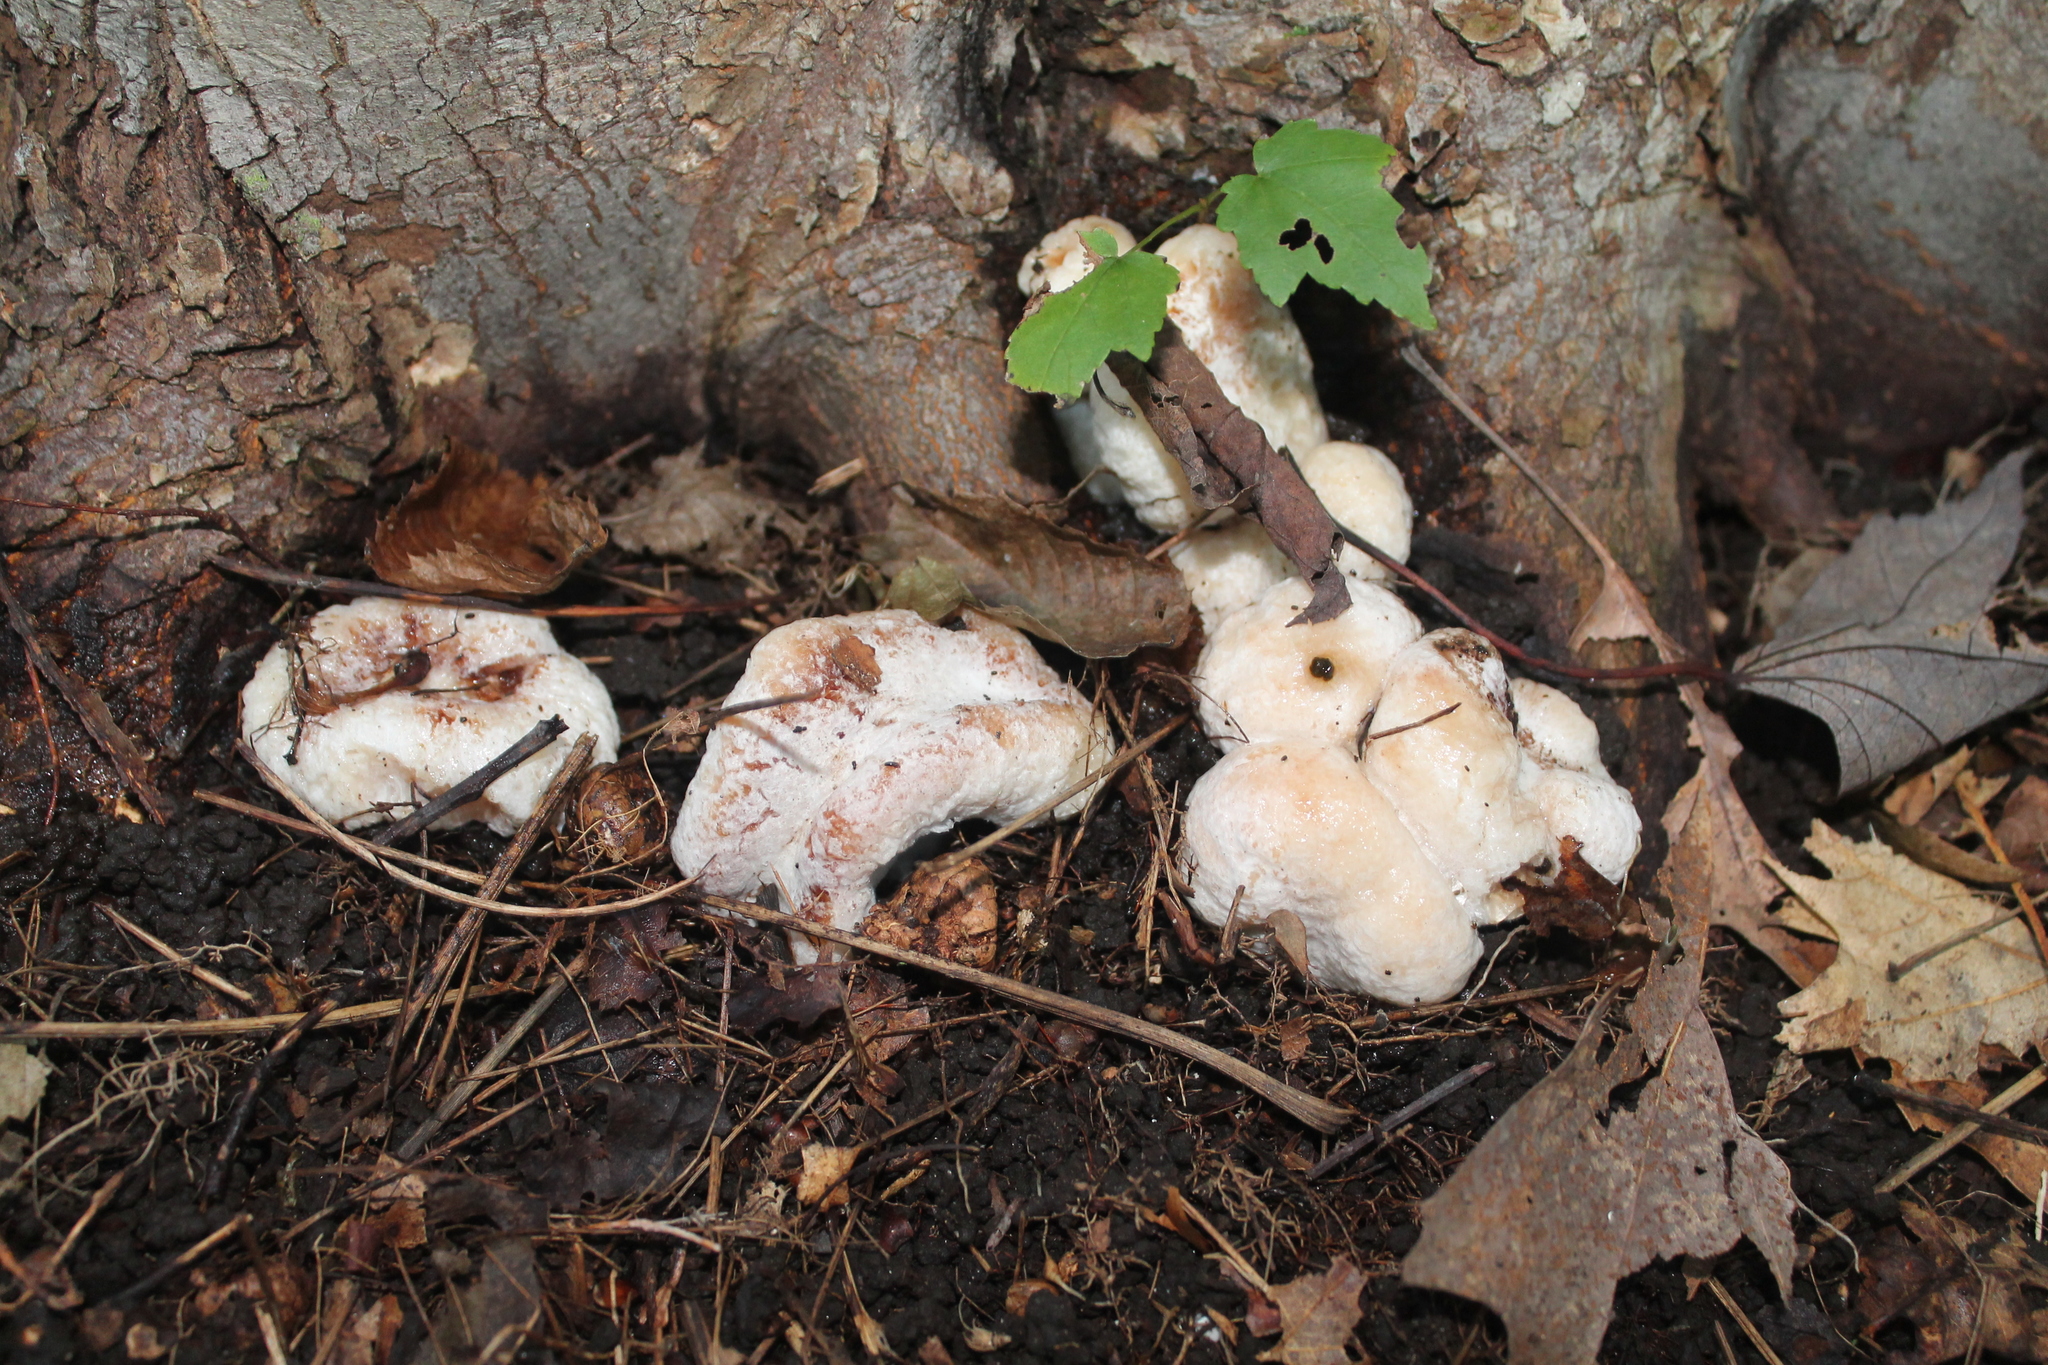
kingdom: Fungi
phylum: Basidiomycota
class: Agaricomycetes
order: Agaricales
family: Entolomataceae
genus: Entoloma
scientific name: Entoloma abortivum
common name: Aborted entoloma
